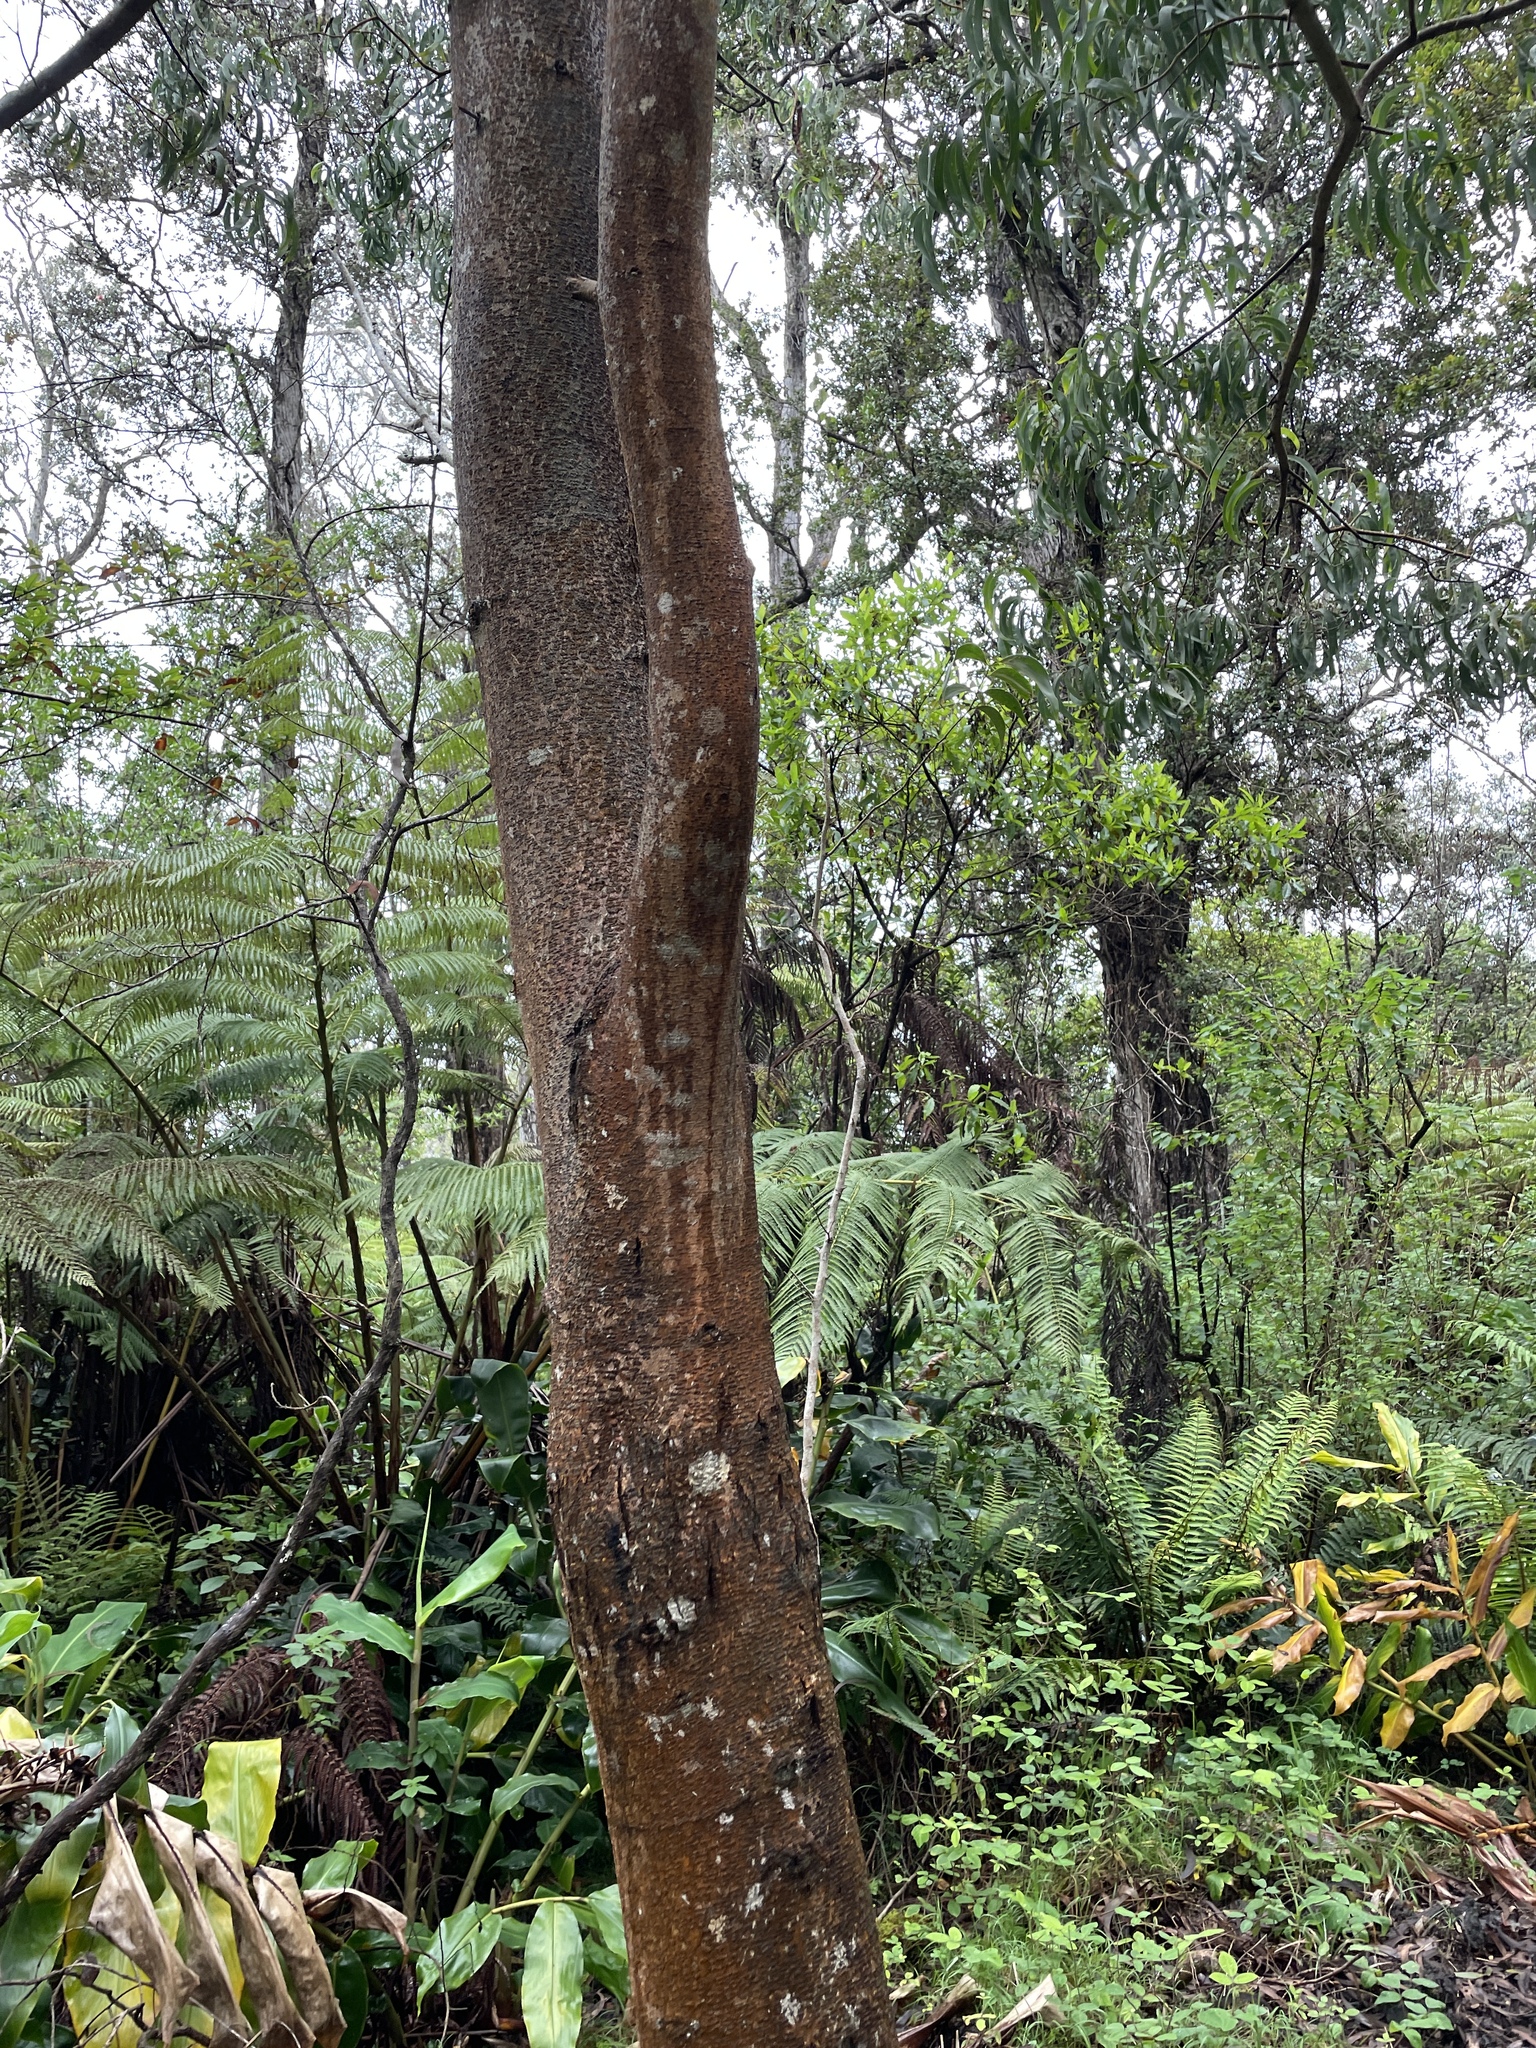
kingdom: Plantae
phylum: Tracheophyta
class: Magnoliopsida
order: Fabales
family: Fabaceae
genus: Acacia
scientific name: Acacia koa
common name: Gray koa
